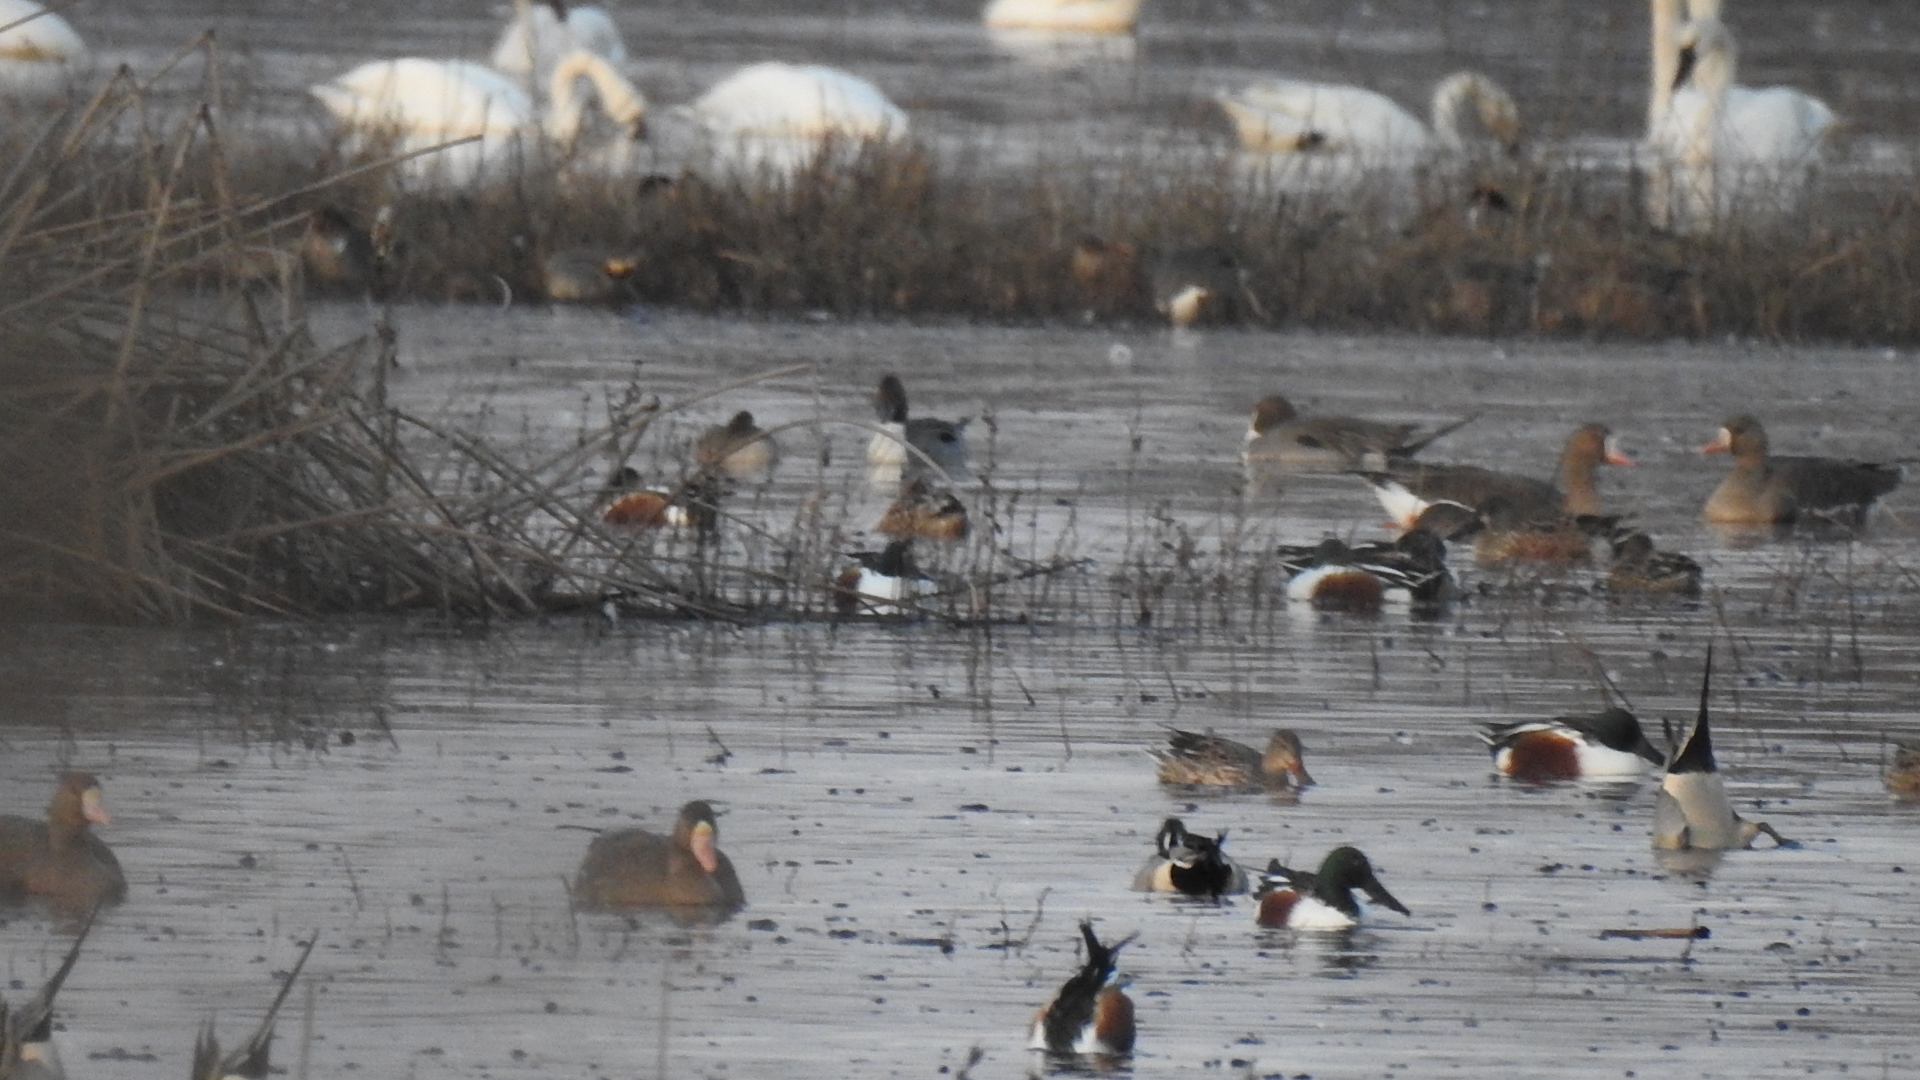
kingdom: Animalia
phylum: Chordata
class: Aves
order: Anseriformes
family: Anatidae
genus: Spatula
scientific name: Spatula clypeata
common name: Northern shoveler
